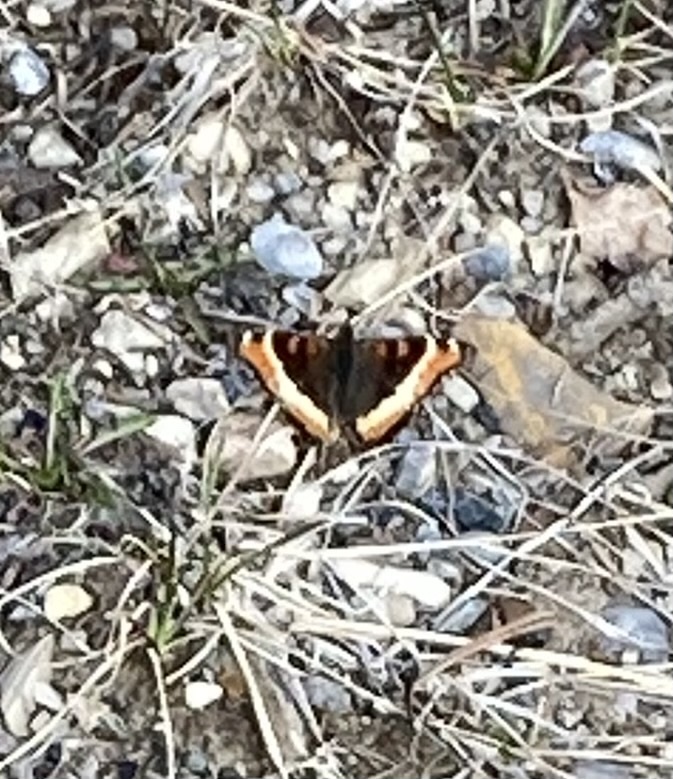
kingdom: Animalia
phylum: Arthropoda
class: Insecta
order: Lepidoptera
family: Nymphalidae
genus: Aglais
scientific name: Aglais milberti
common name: Milbert's tortoiseshell
